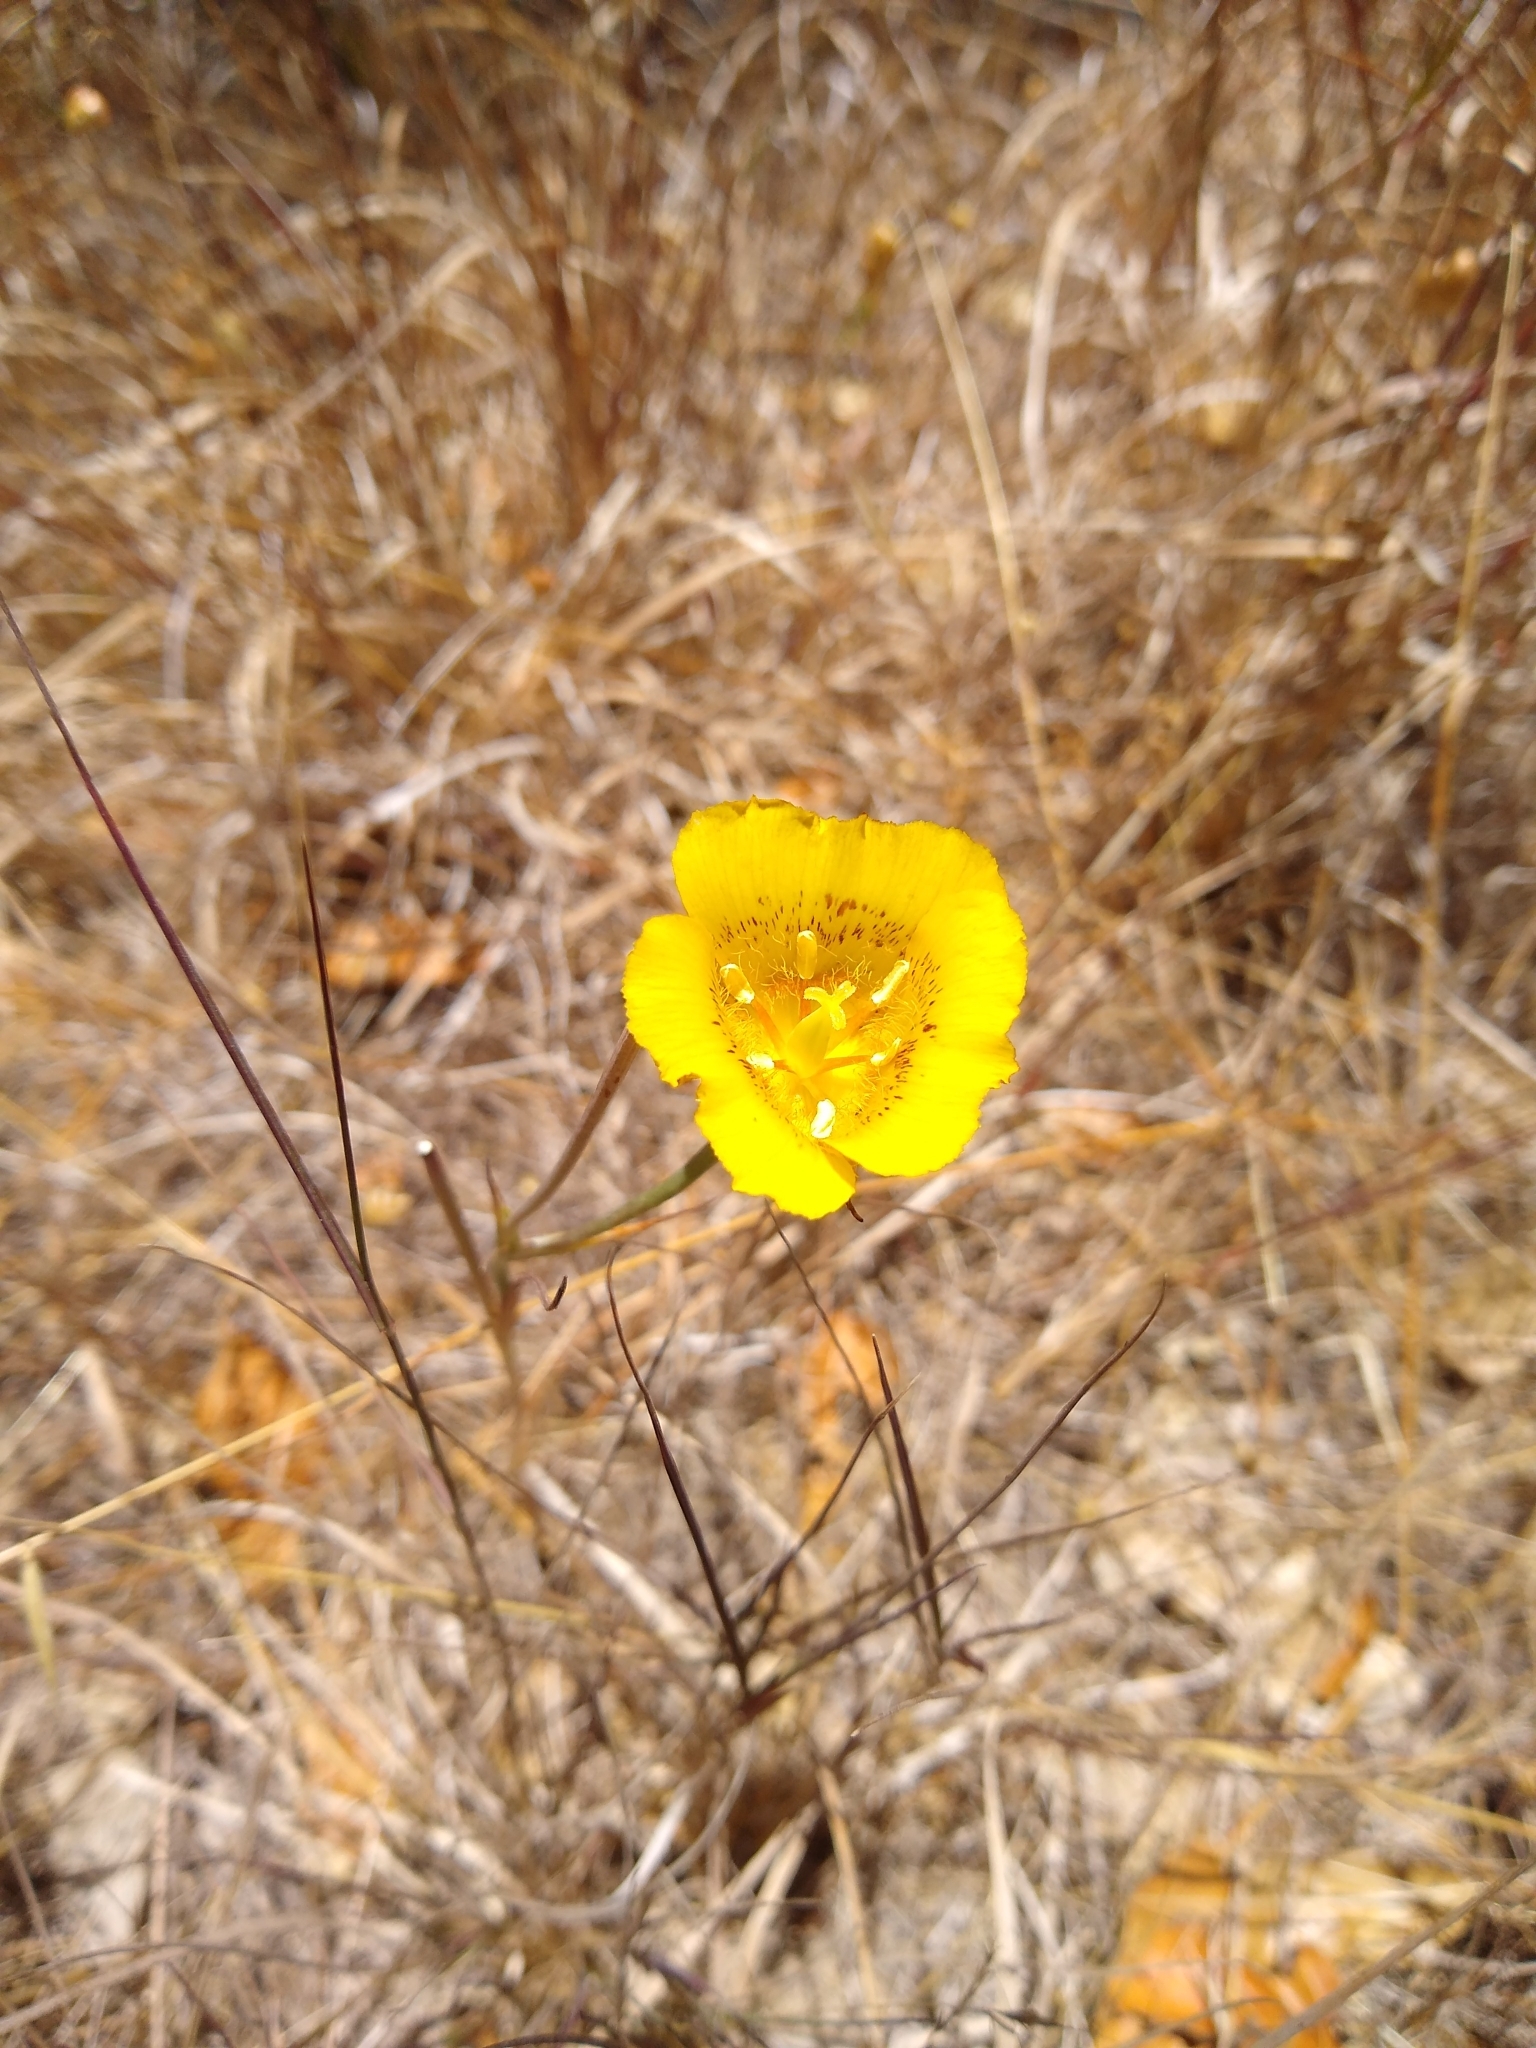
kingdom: Plantae
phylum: Tracheophyta
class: Liliopsida
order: Liliales
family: Liliaceae
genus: Calochortus
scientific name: Calochortus luteus
